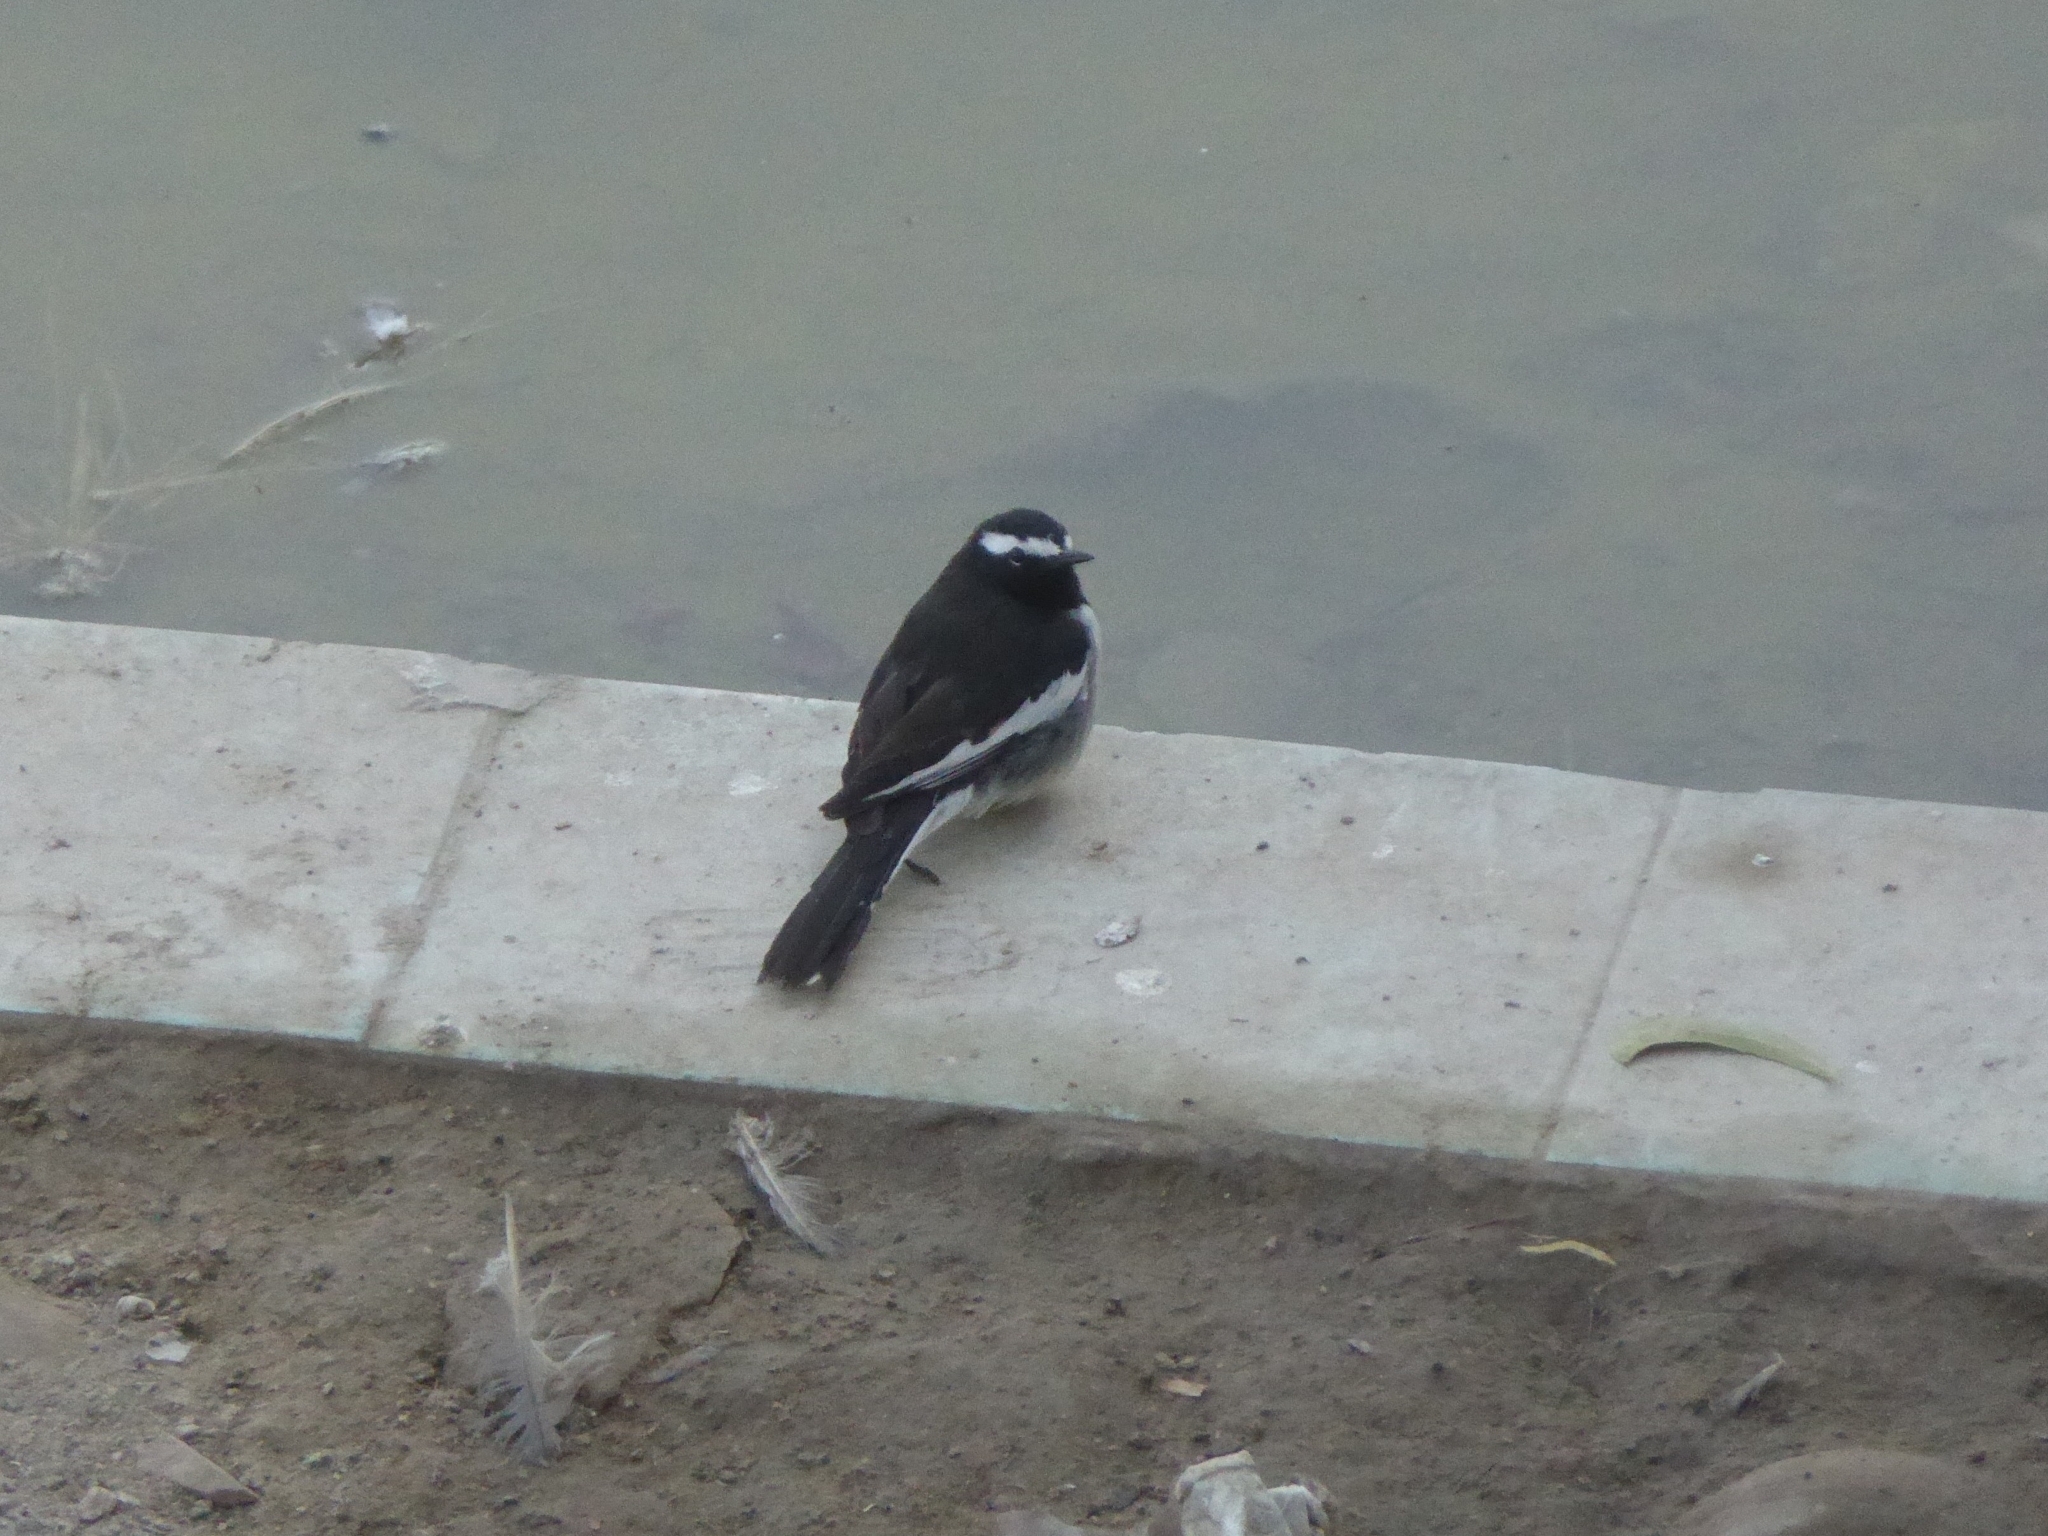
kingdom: Animalia
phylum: Chordata
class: Aves
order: Passeriformes
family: Motacillidae
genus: Motacilla
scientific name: Motacilla maderaspatensis
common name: White-browed wagtail
